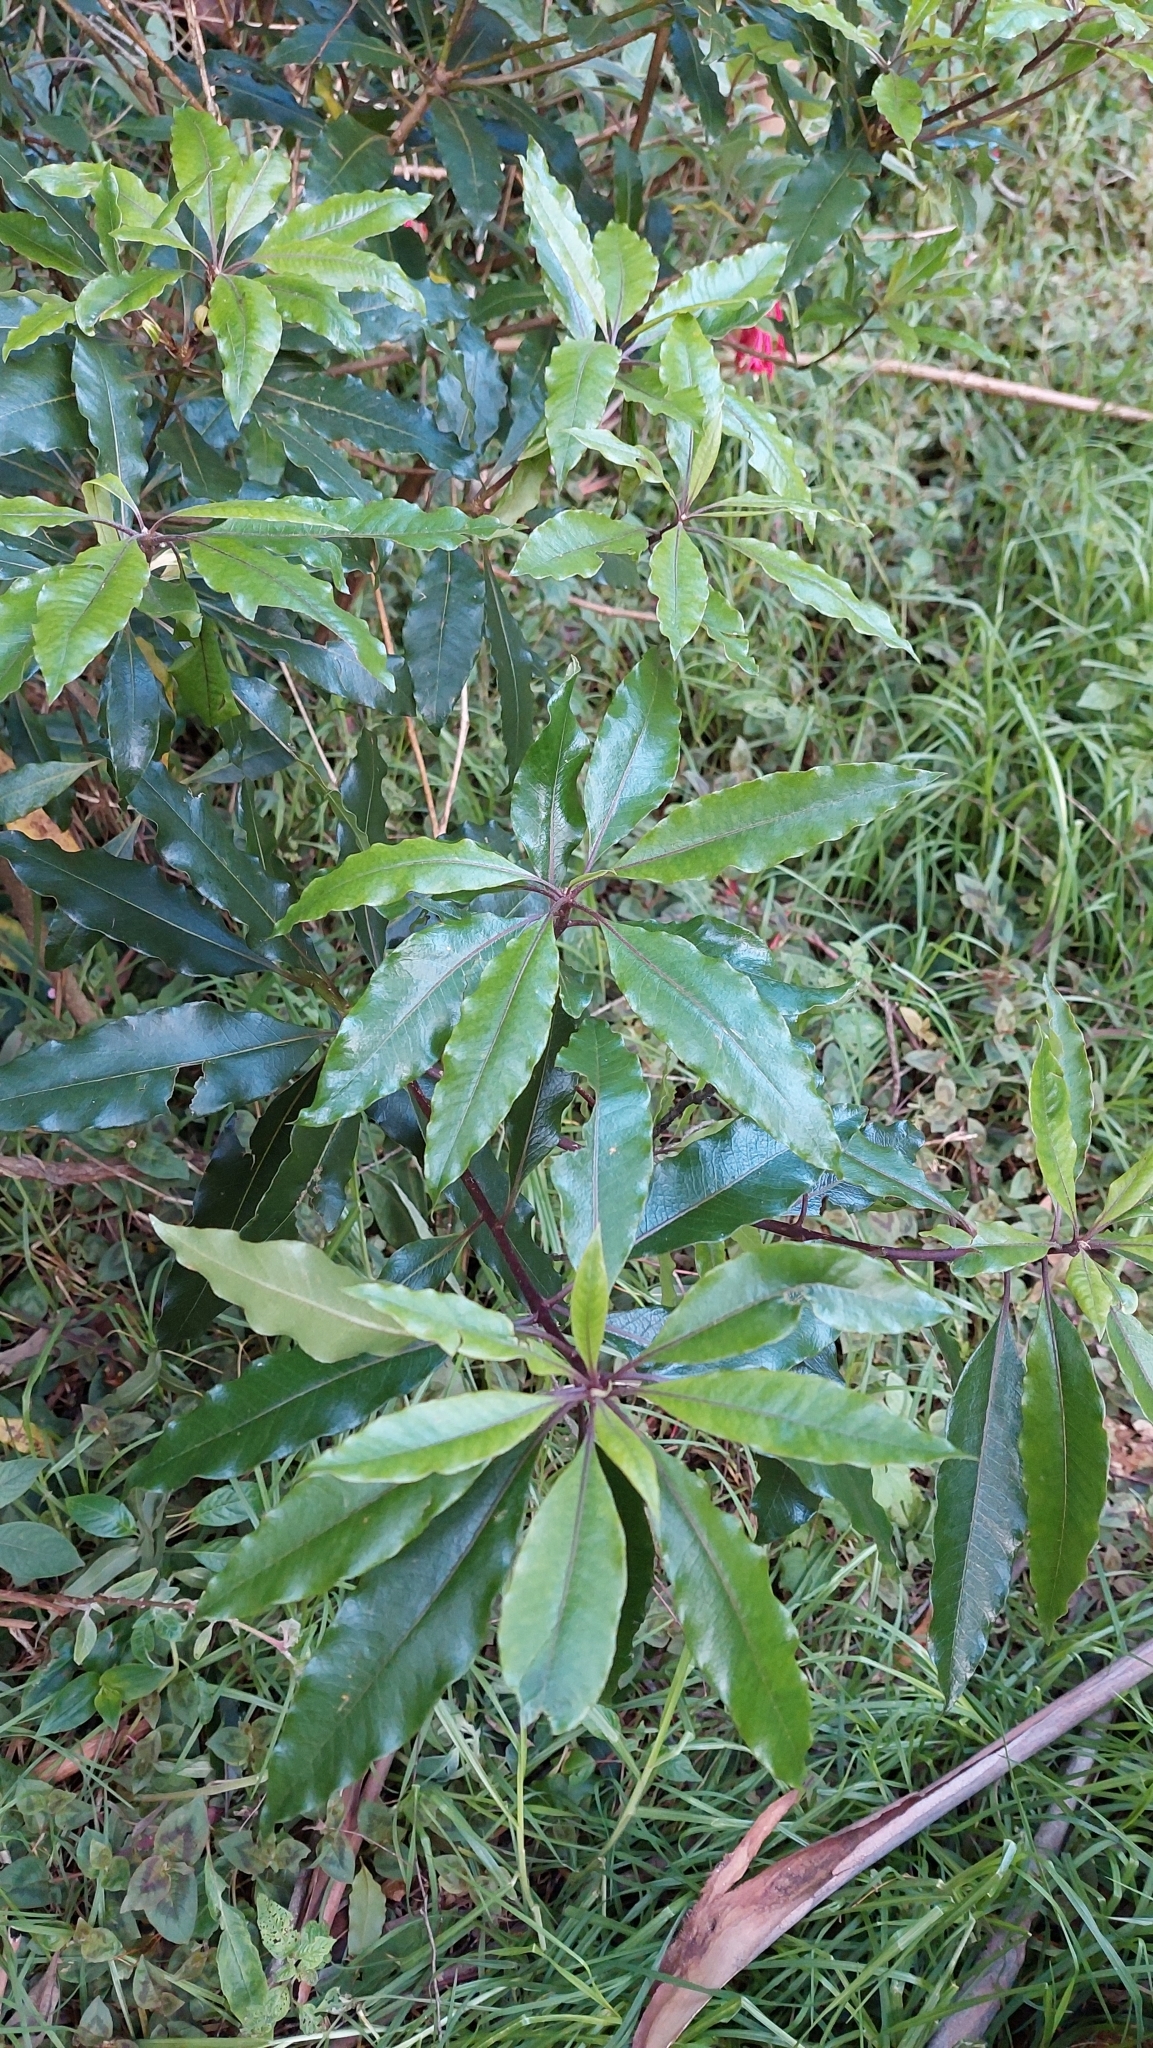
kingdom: Plantae
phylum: Tracheophyta
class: Magnoliopsida
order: Apiales
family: Pittosporaceae
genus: Pittosporum
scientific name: Pittosporum undulatum
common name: Australian cheesewood
